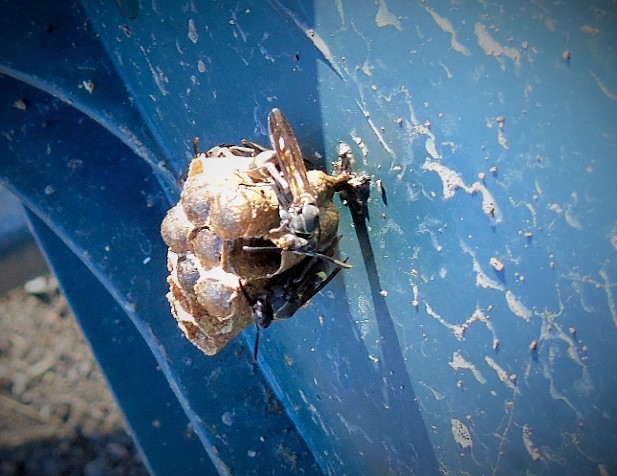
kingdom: Animalia
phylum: Arthropoda
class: Insecta
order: Hymenoptera
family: Vespidae
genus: Mischocyttarus
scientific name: Mischocyttarus
